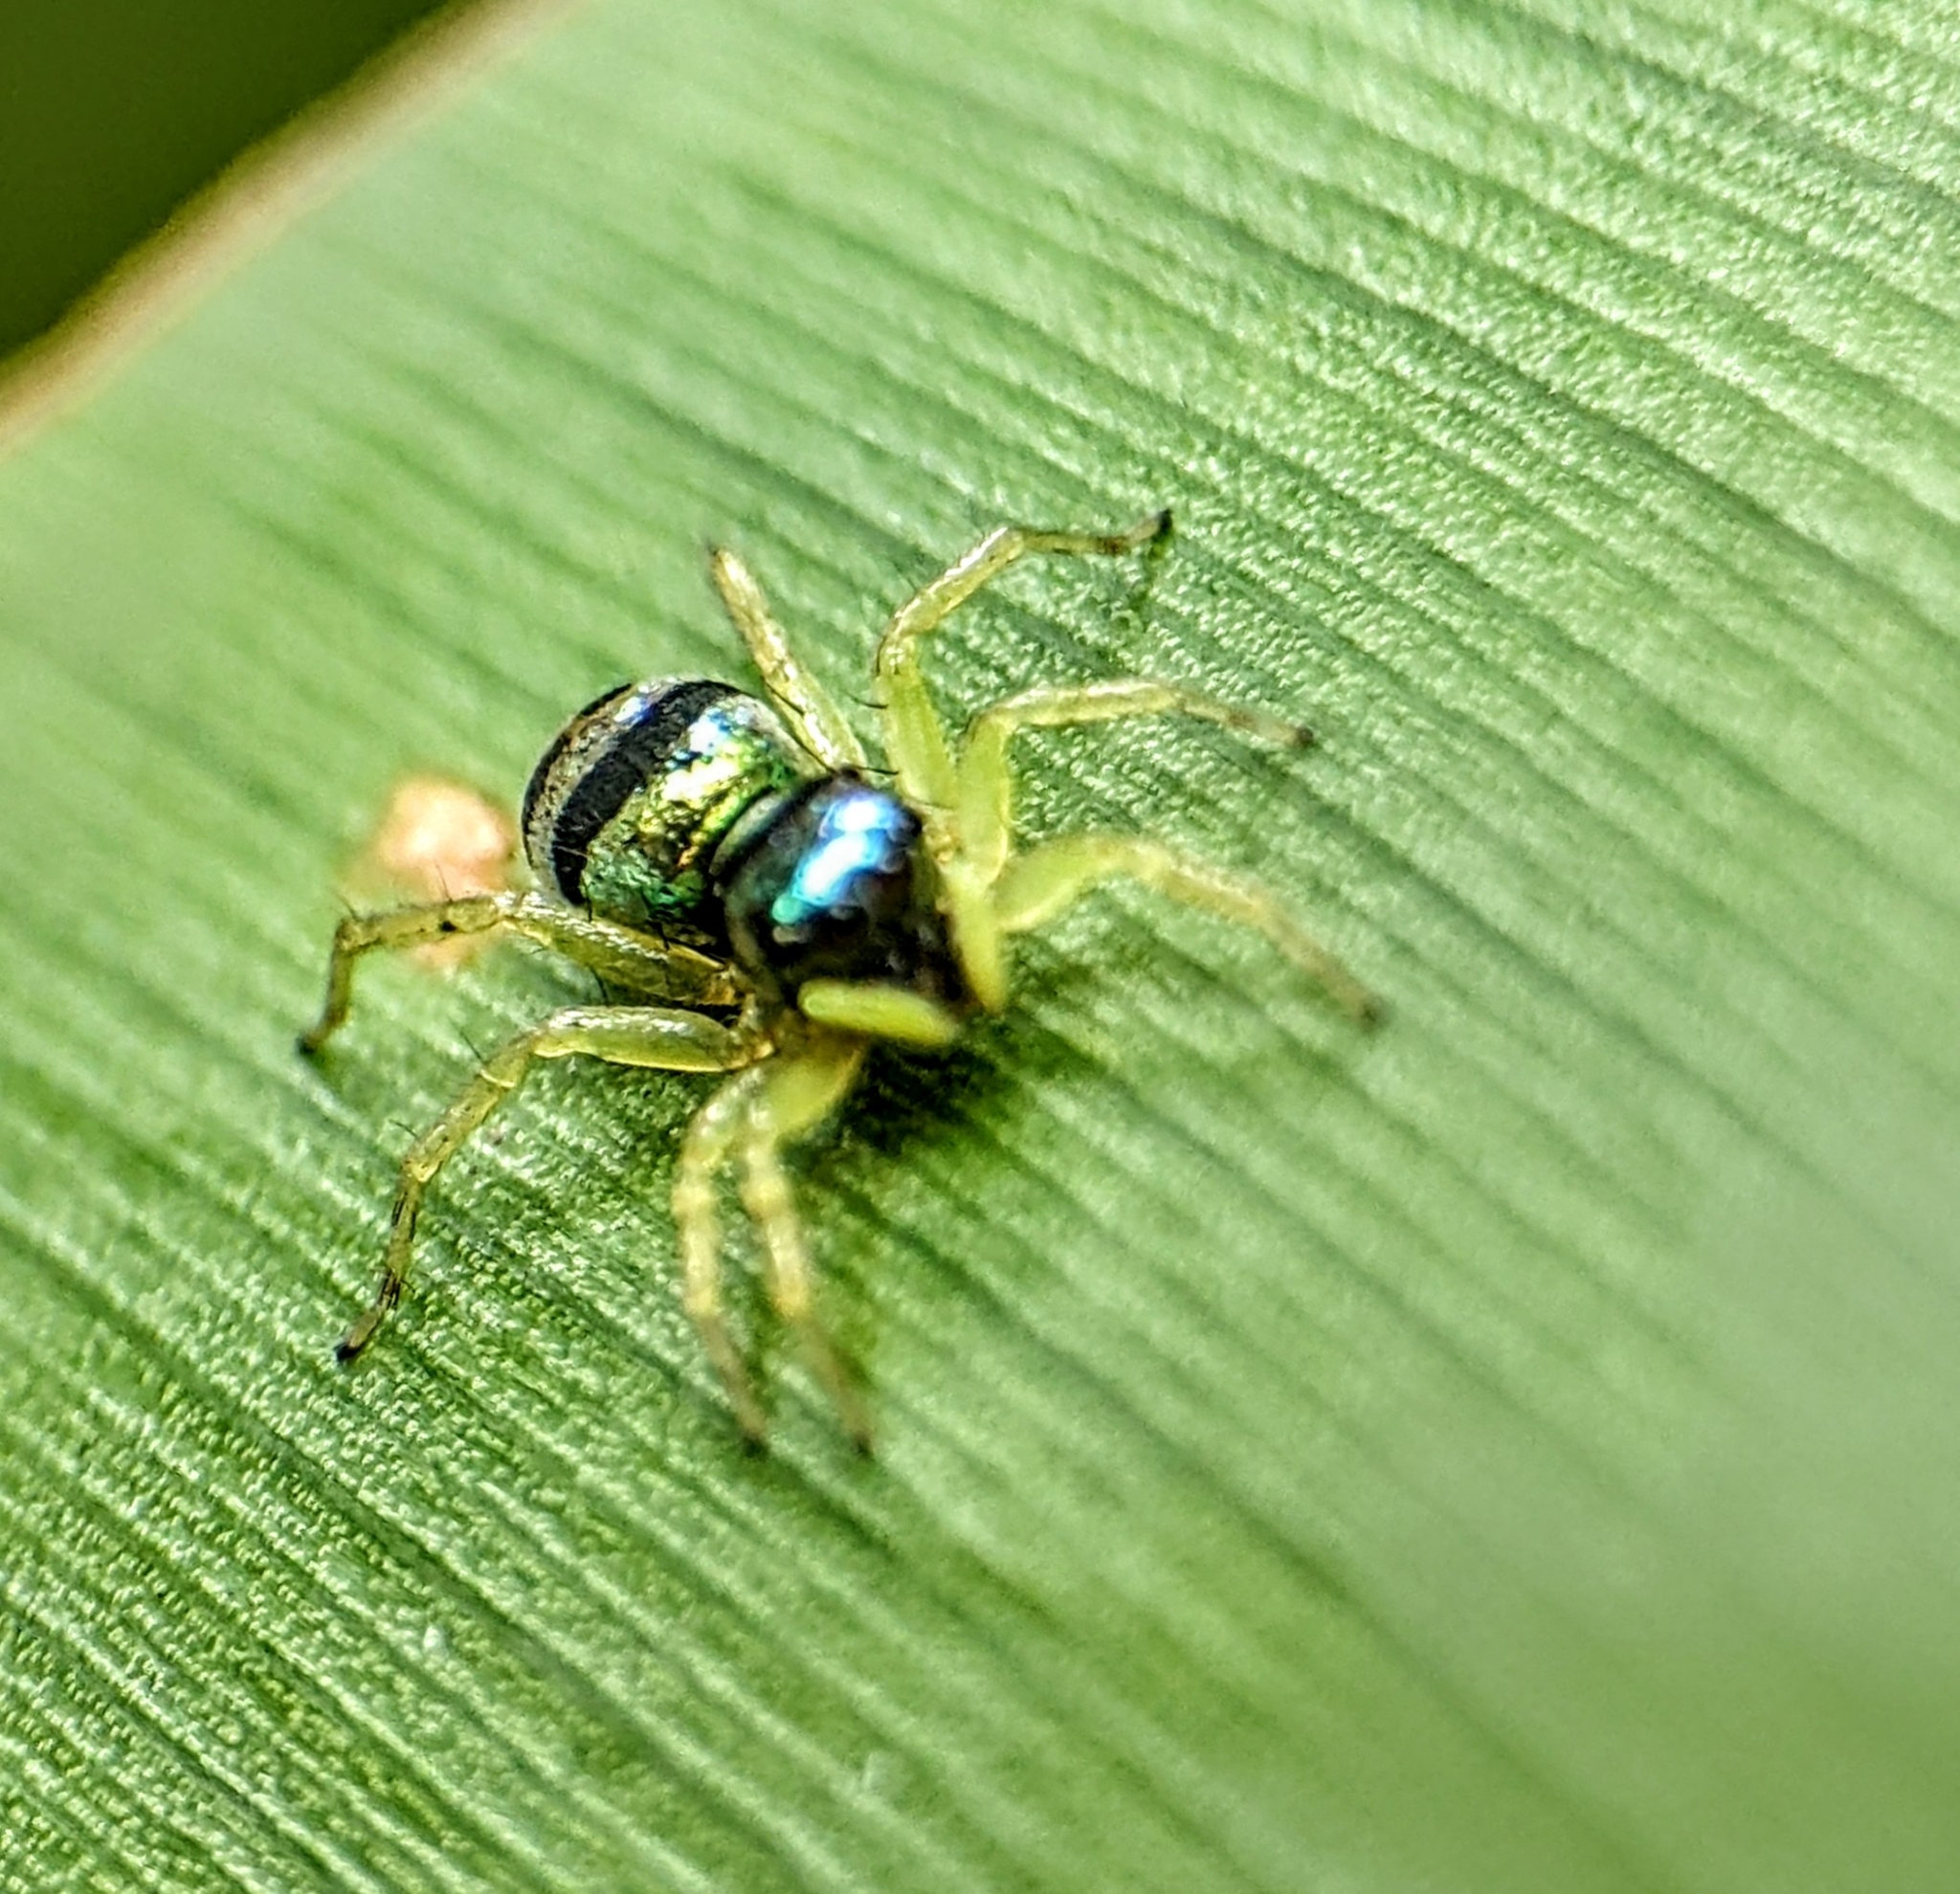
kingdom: Animalia
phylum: Arthropoda
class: Arachnida
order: Araneae
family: Salticidae
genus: Phintella
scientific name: Phintella vittata
